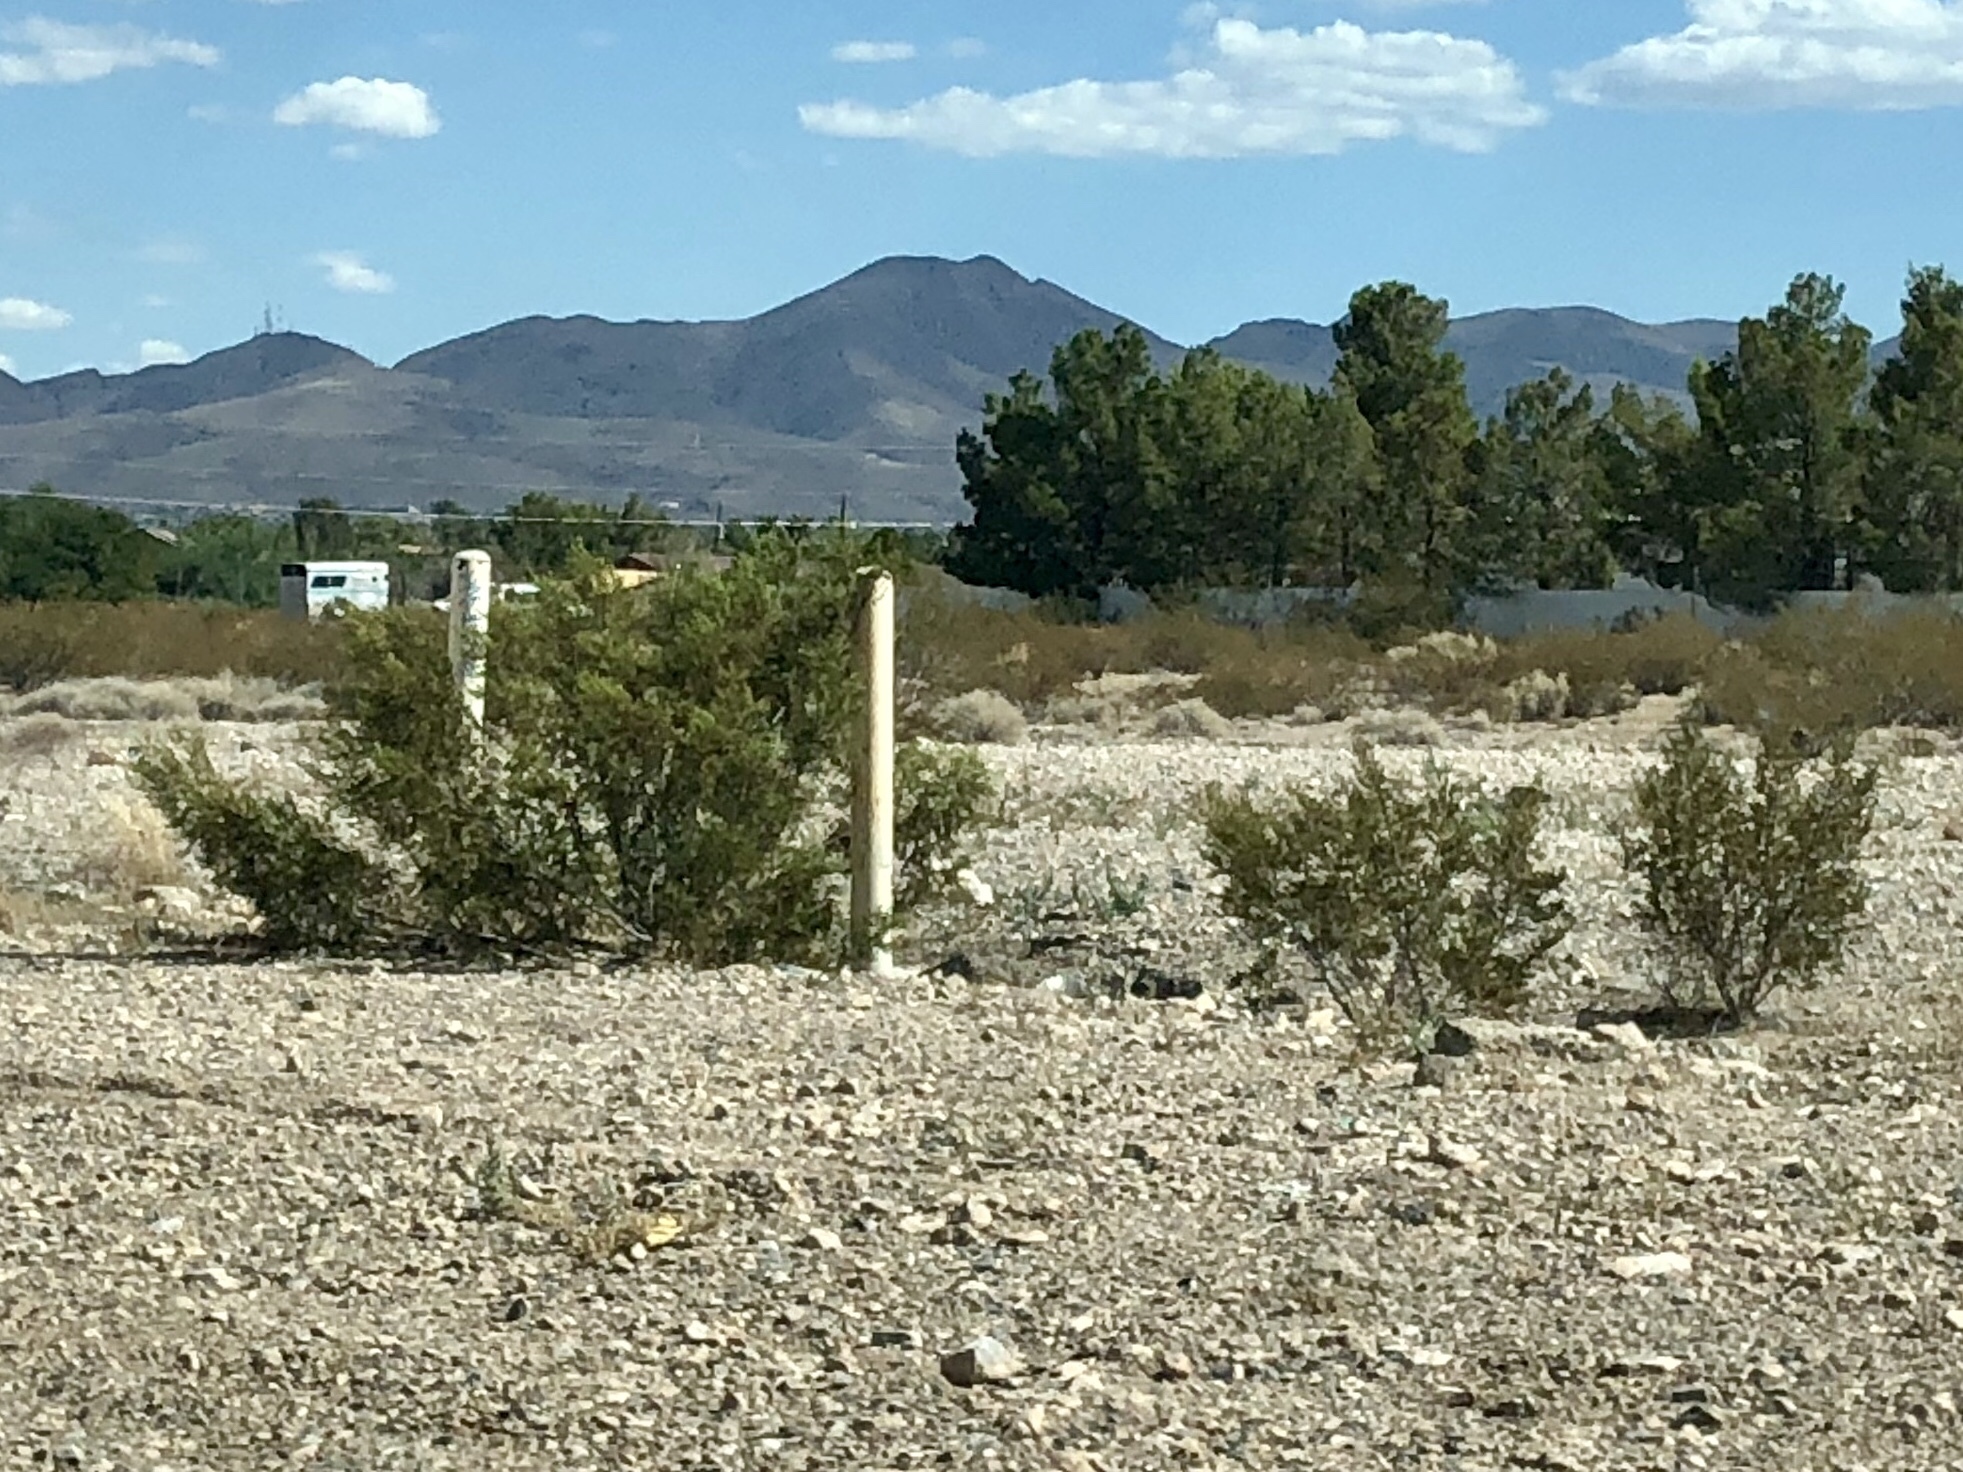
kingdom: Plantae
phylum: Tracheophyta
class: Magnoliopsida
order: Zygophyllales
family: Zygophyllaceae
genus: Larrea
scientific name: Larrea tridentata
